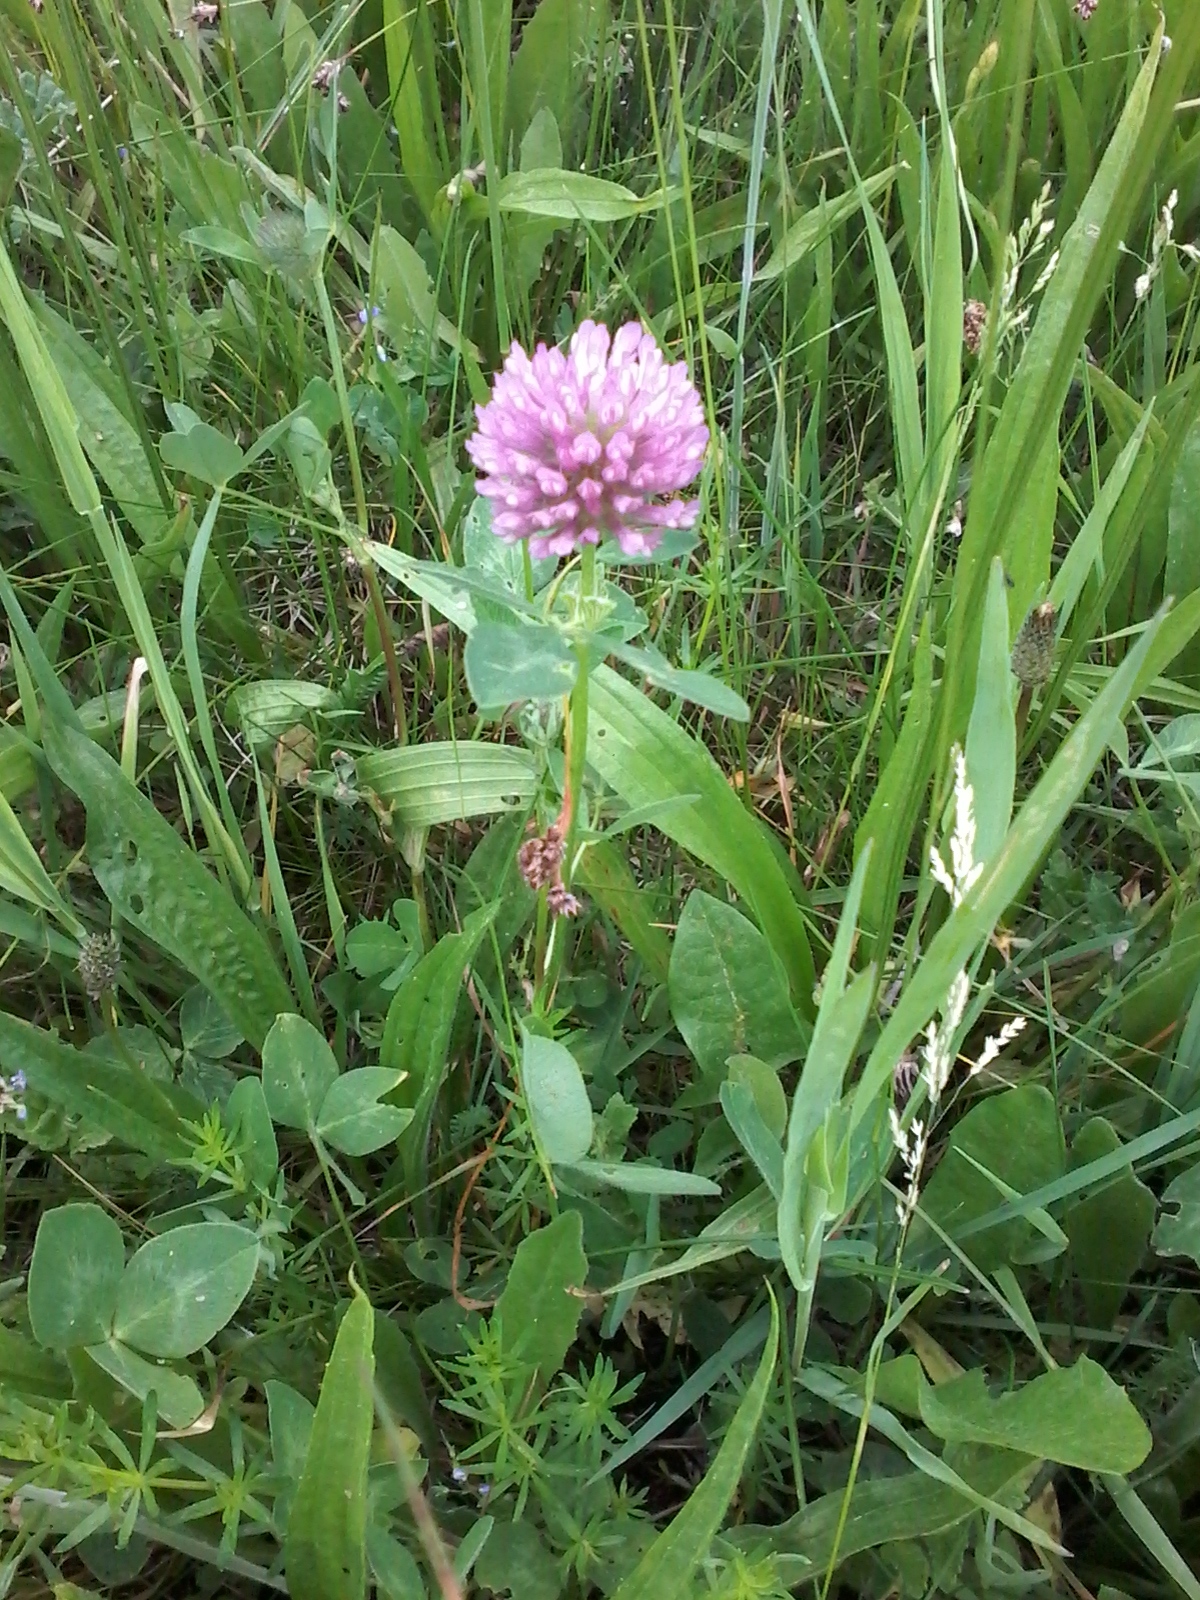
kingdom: Plantae
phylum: Tracheophyta
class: Magnoliopsida
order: Fabales
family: Fabaceae
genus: Trifolium
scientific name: Trifolium pratense
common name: Red clover
